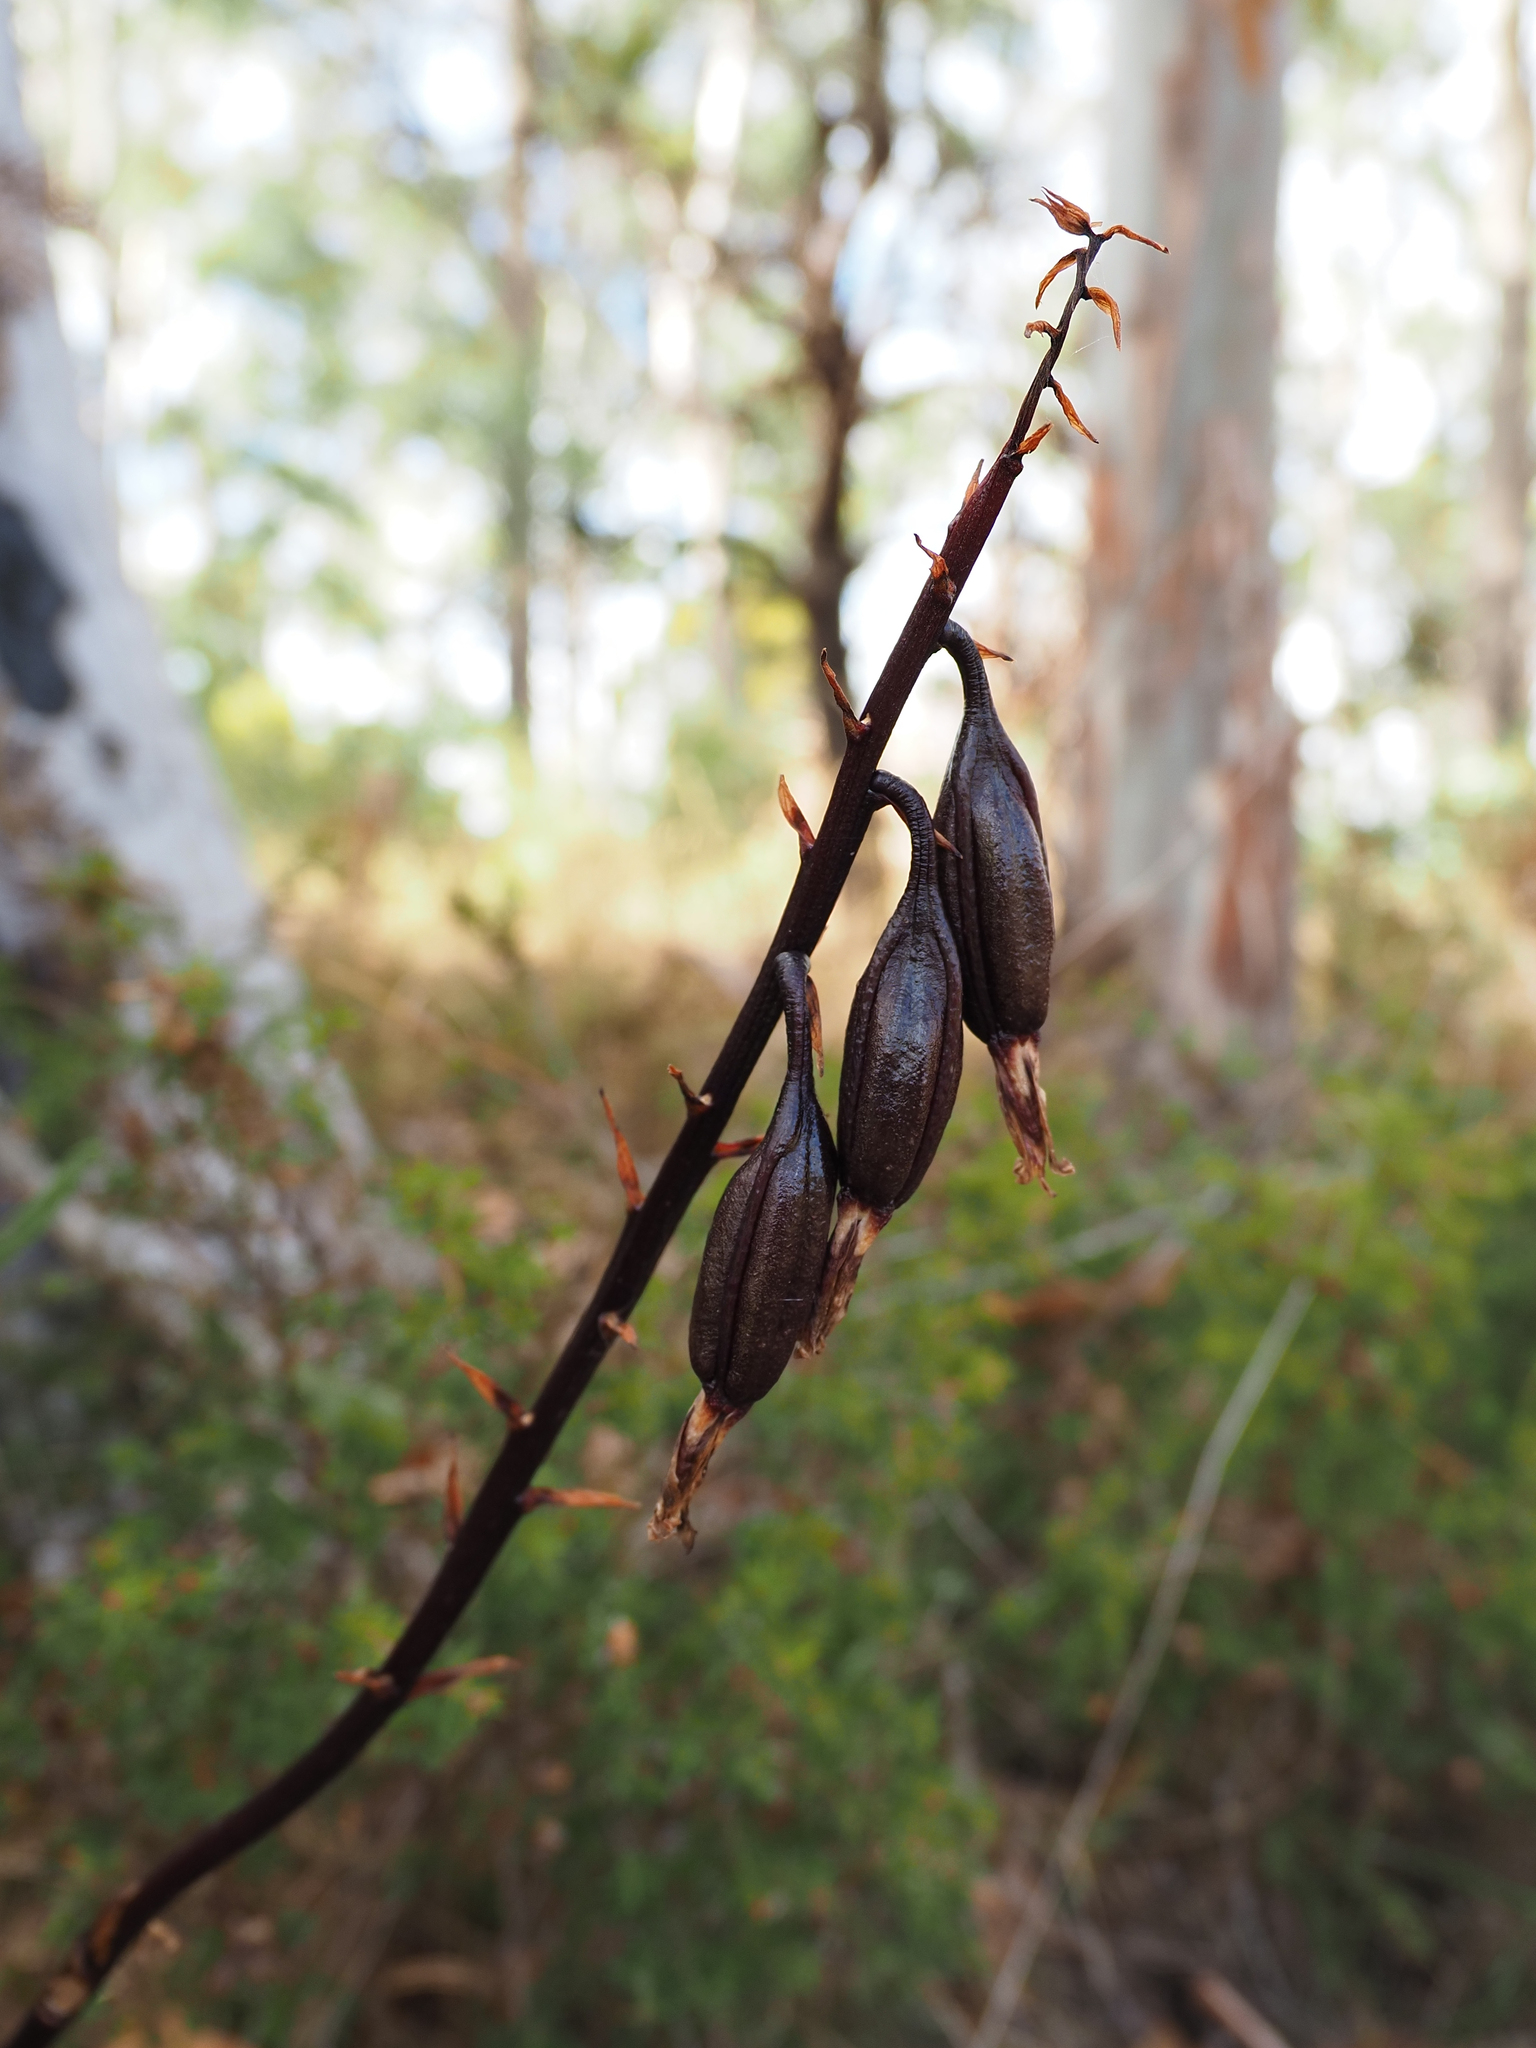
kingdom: Plantae
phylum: Tracheophyta
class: Liliopsida
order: Asparagales
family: Orchidaceae
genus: Dipodium
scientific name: Dipodium roseum
